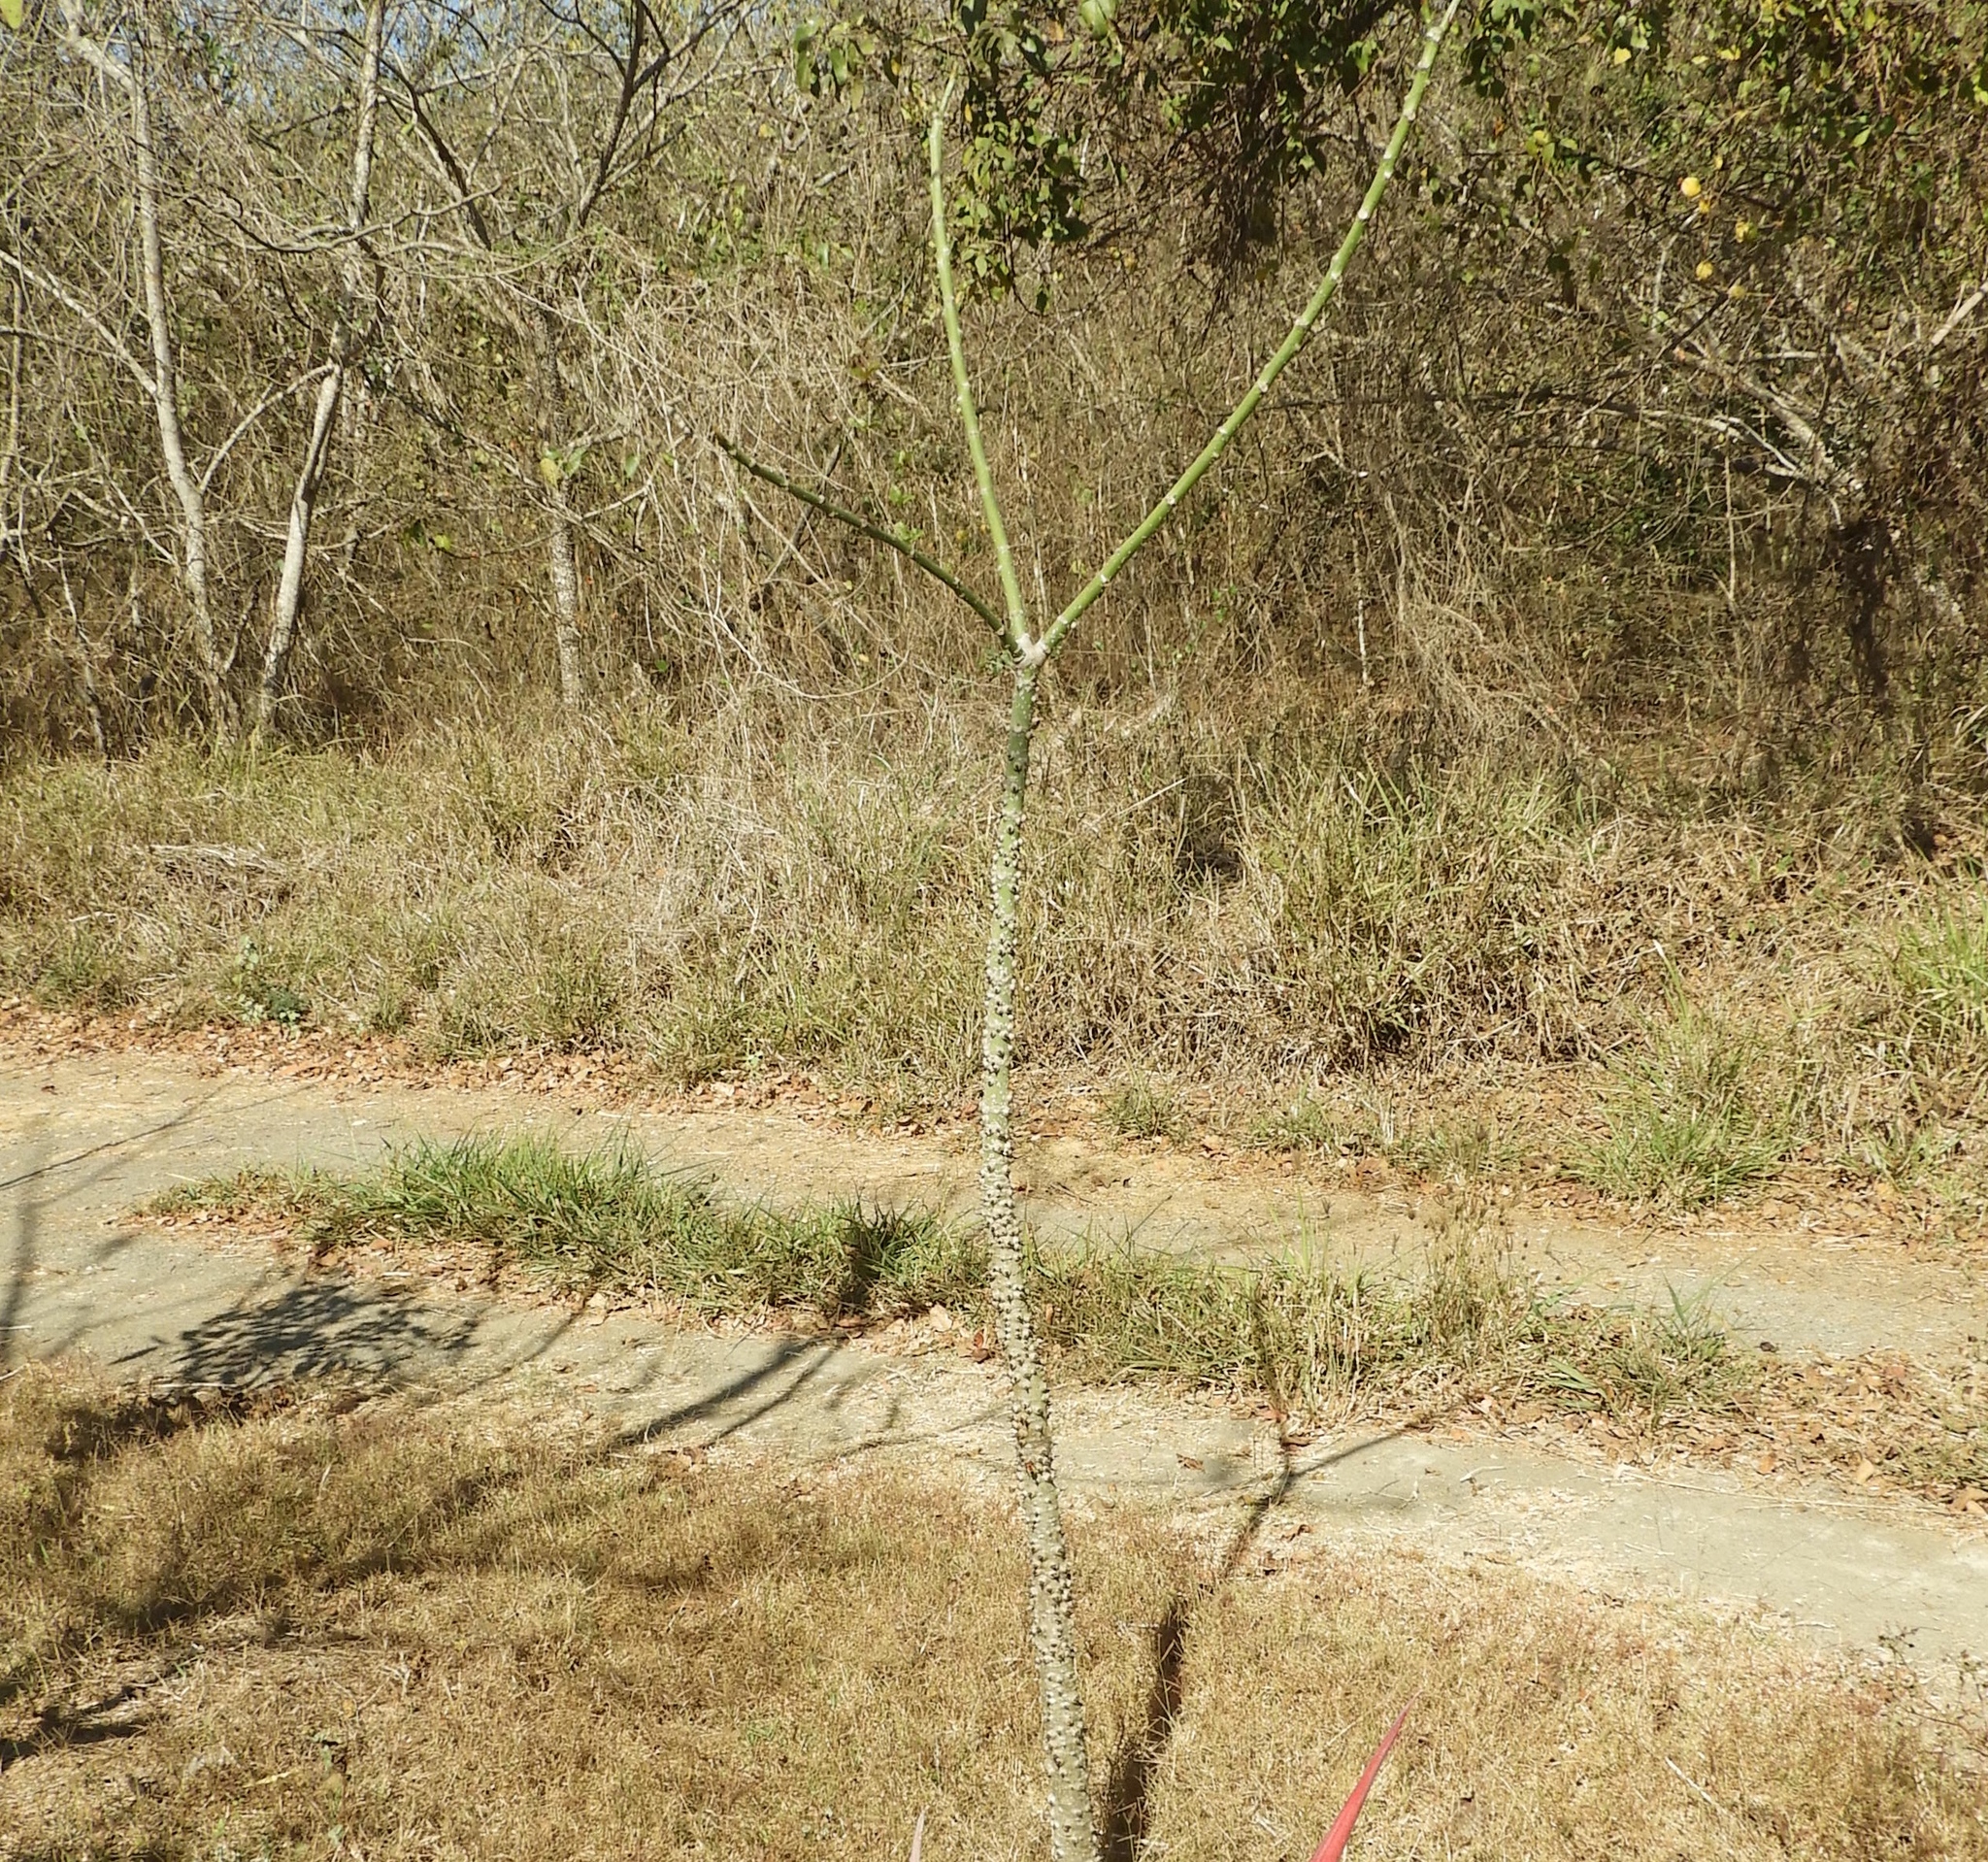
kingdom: Plantae
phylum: Tracheophyta
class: Magnoliopsida
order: Malpighiales
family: Euphorbiaceae
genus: Hura
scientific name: Hura polyandra
